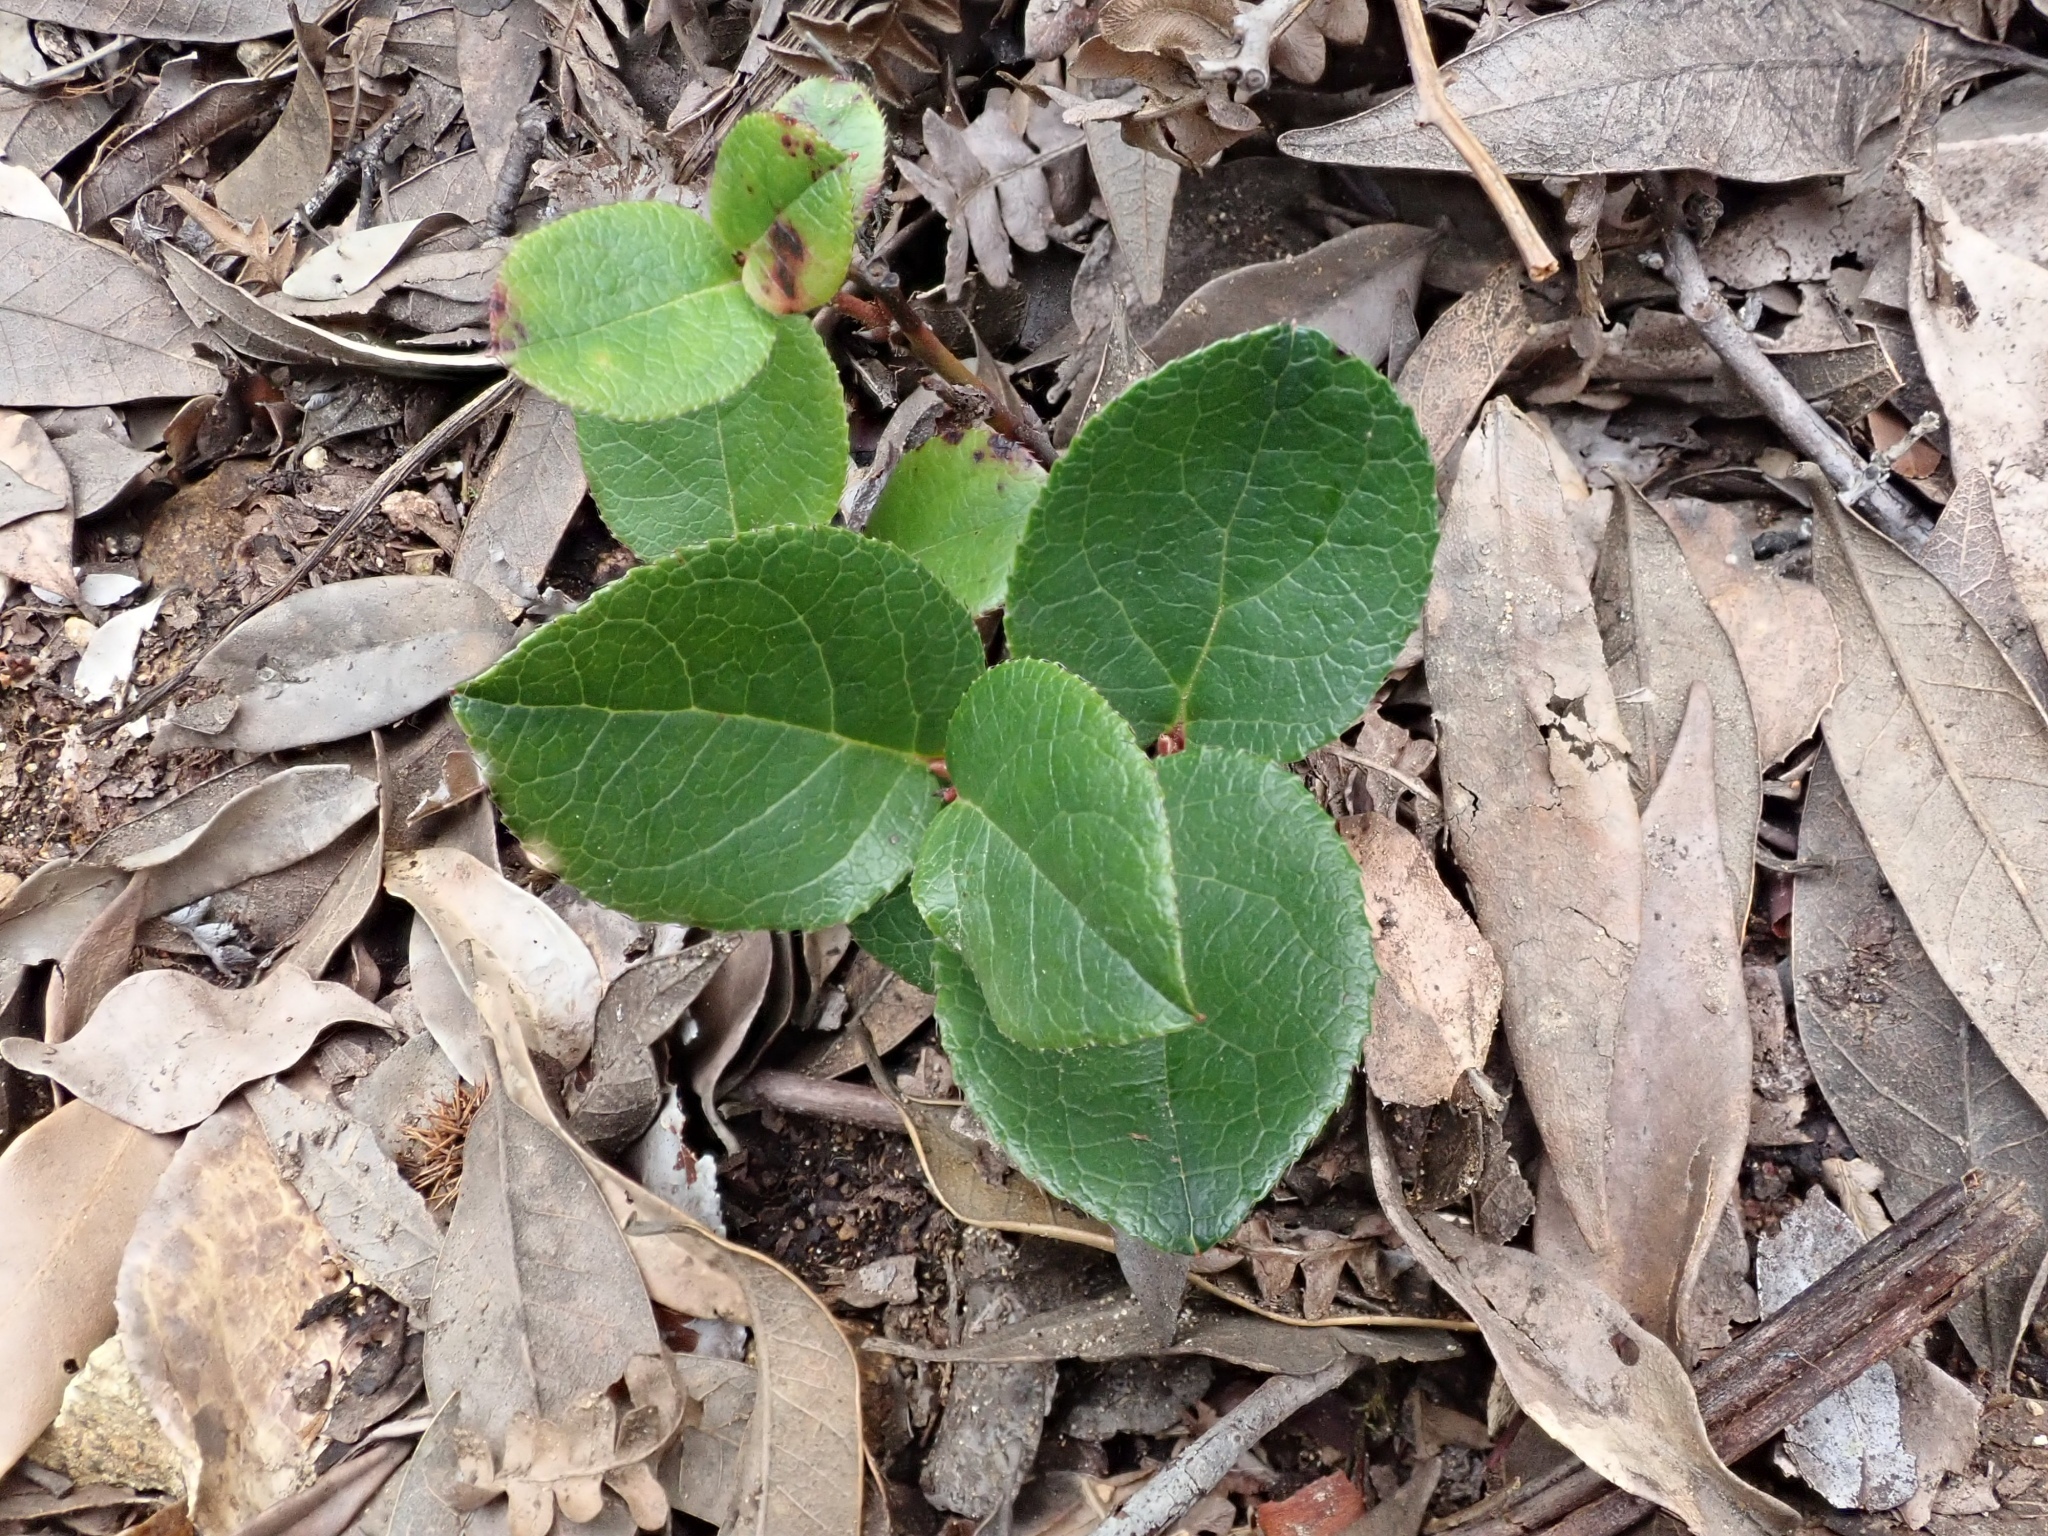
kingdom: Plantae
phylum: Tracheophyta
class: Magnoliopsida
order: Ericales
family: Ericaceae
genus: Gaultheria
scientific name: Gaultheria shallon
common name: Shallon
